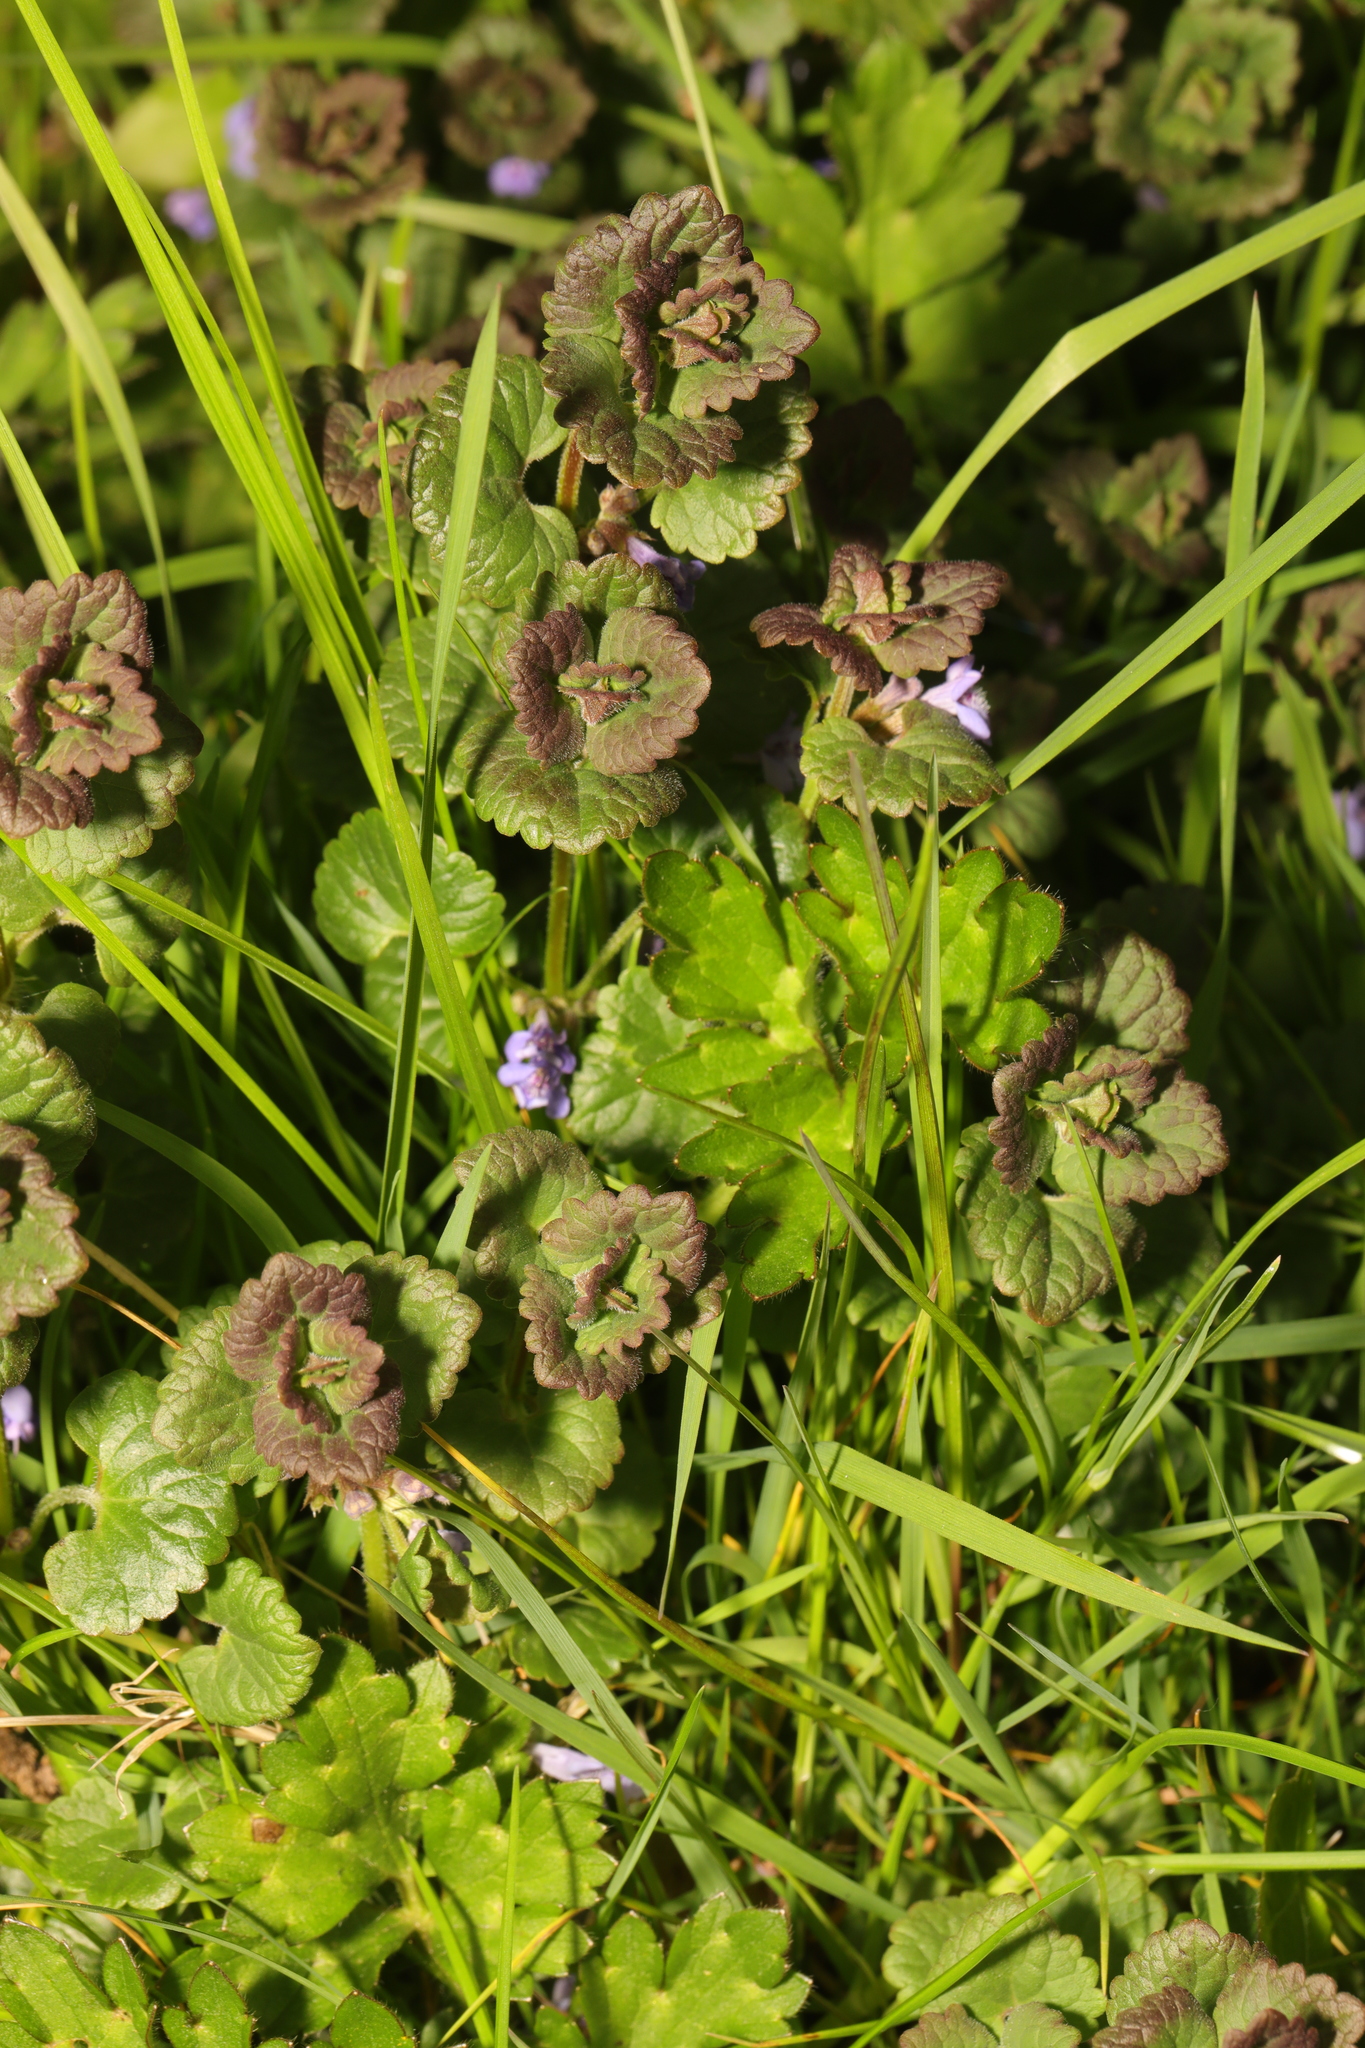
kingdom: Plantae
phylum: Tracheophyta
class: Magnoliopsida
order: Lamiales
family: Lamiaceae
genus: Glechoma
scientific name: Glechoma hederacea
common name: Ground ivy
